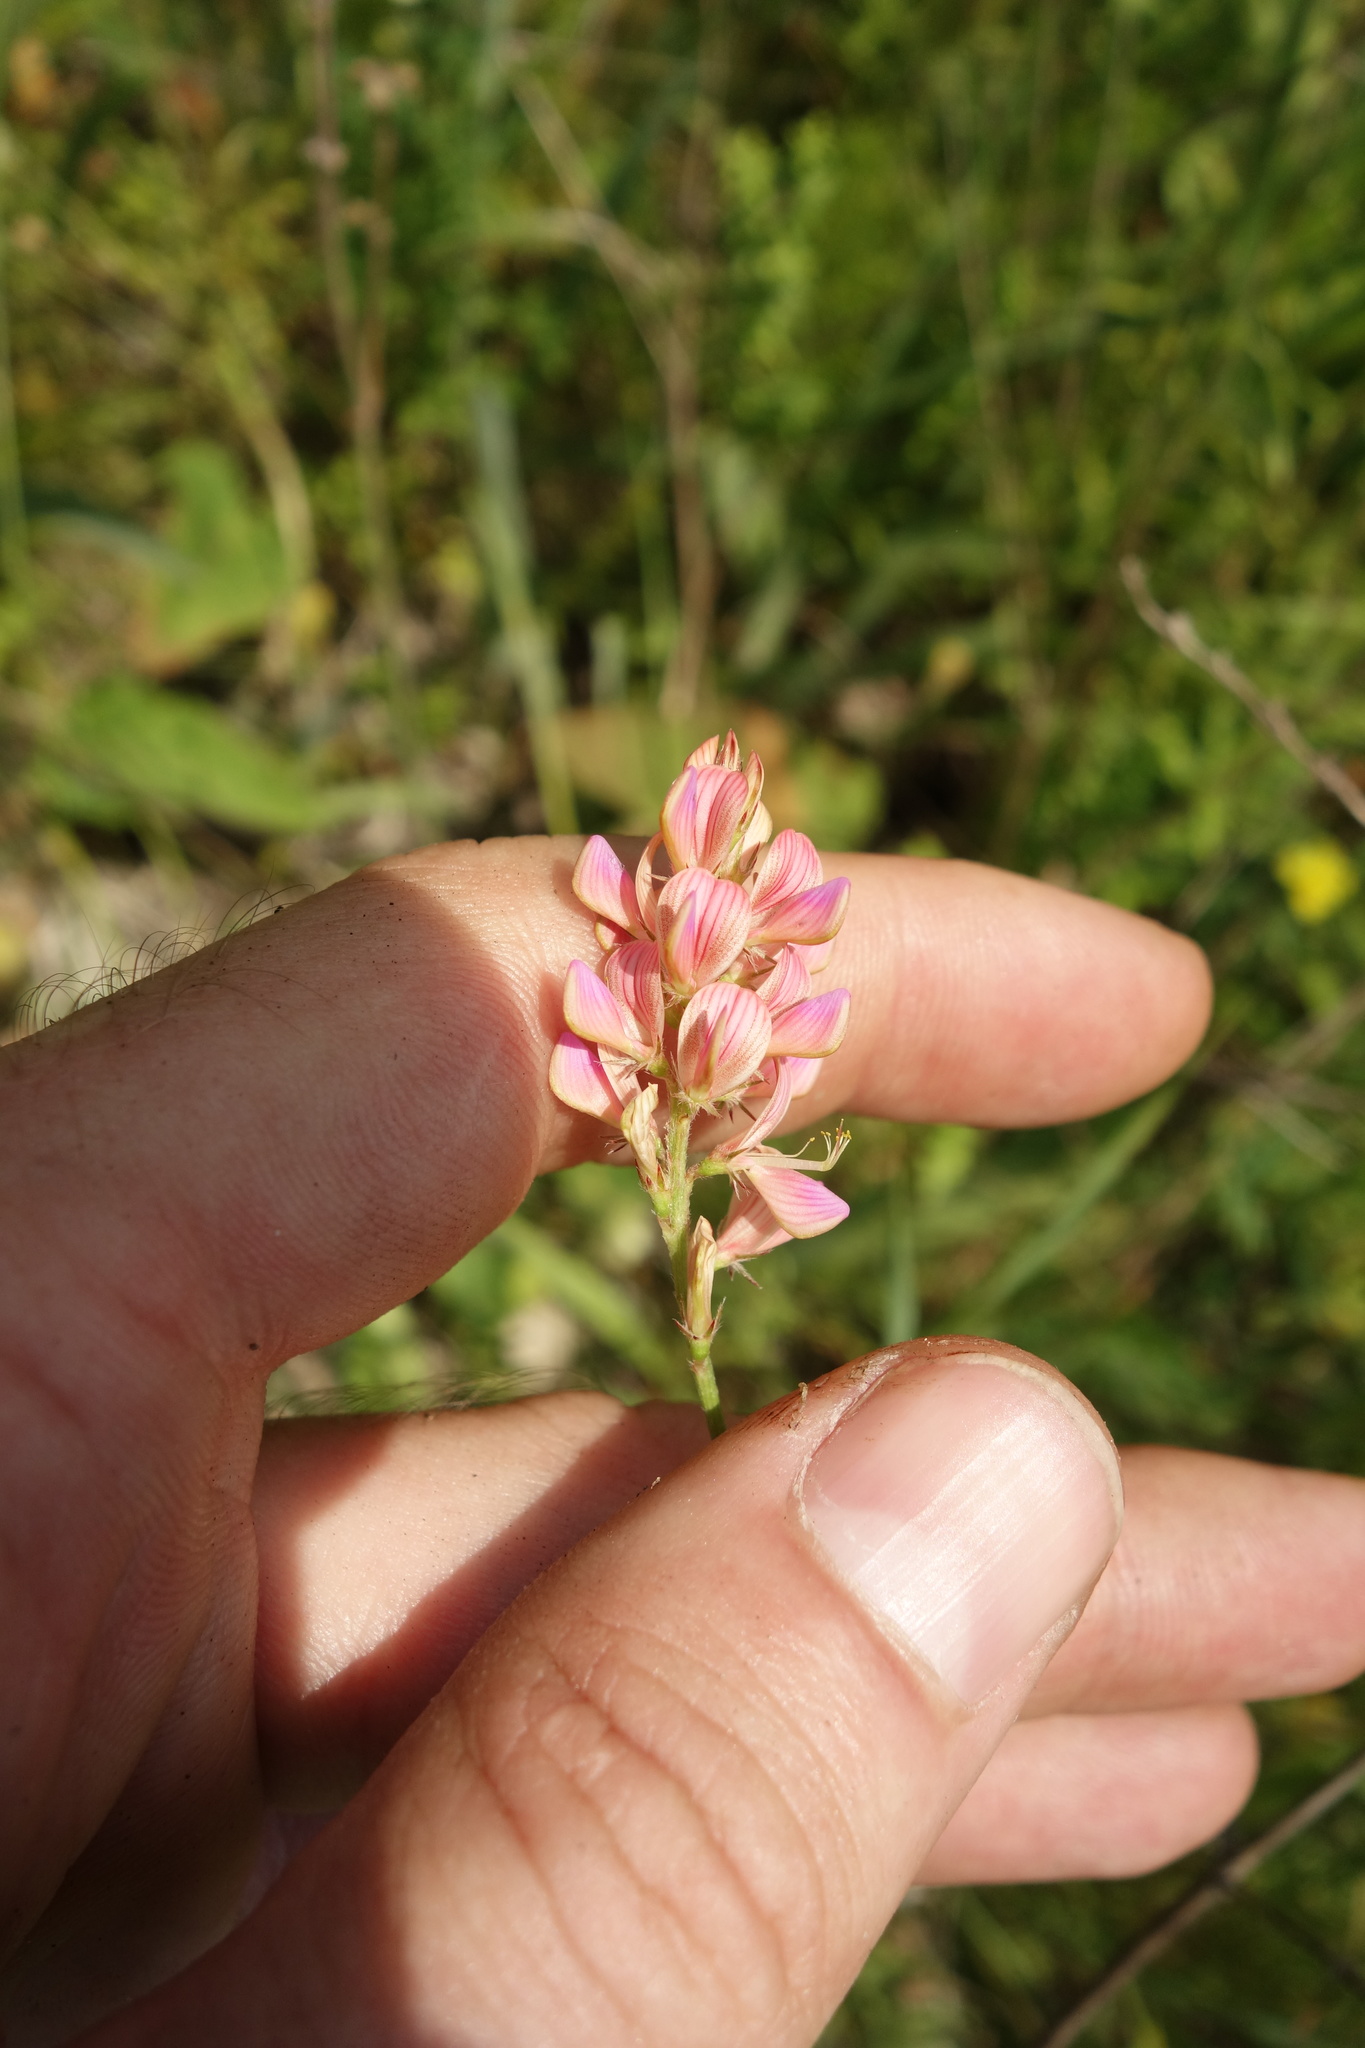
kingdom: Plantae
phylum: Tracheophyta
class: Magnoliopsida
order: Fabales
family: Fabaceae
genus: Onobrychis
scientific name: Onobrychis viciifolia
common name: Sainfoin
